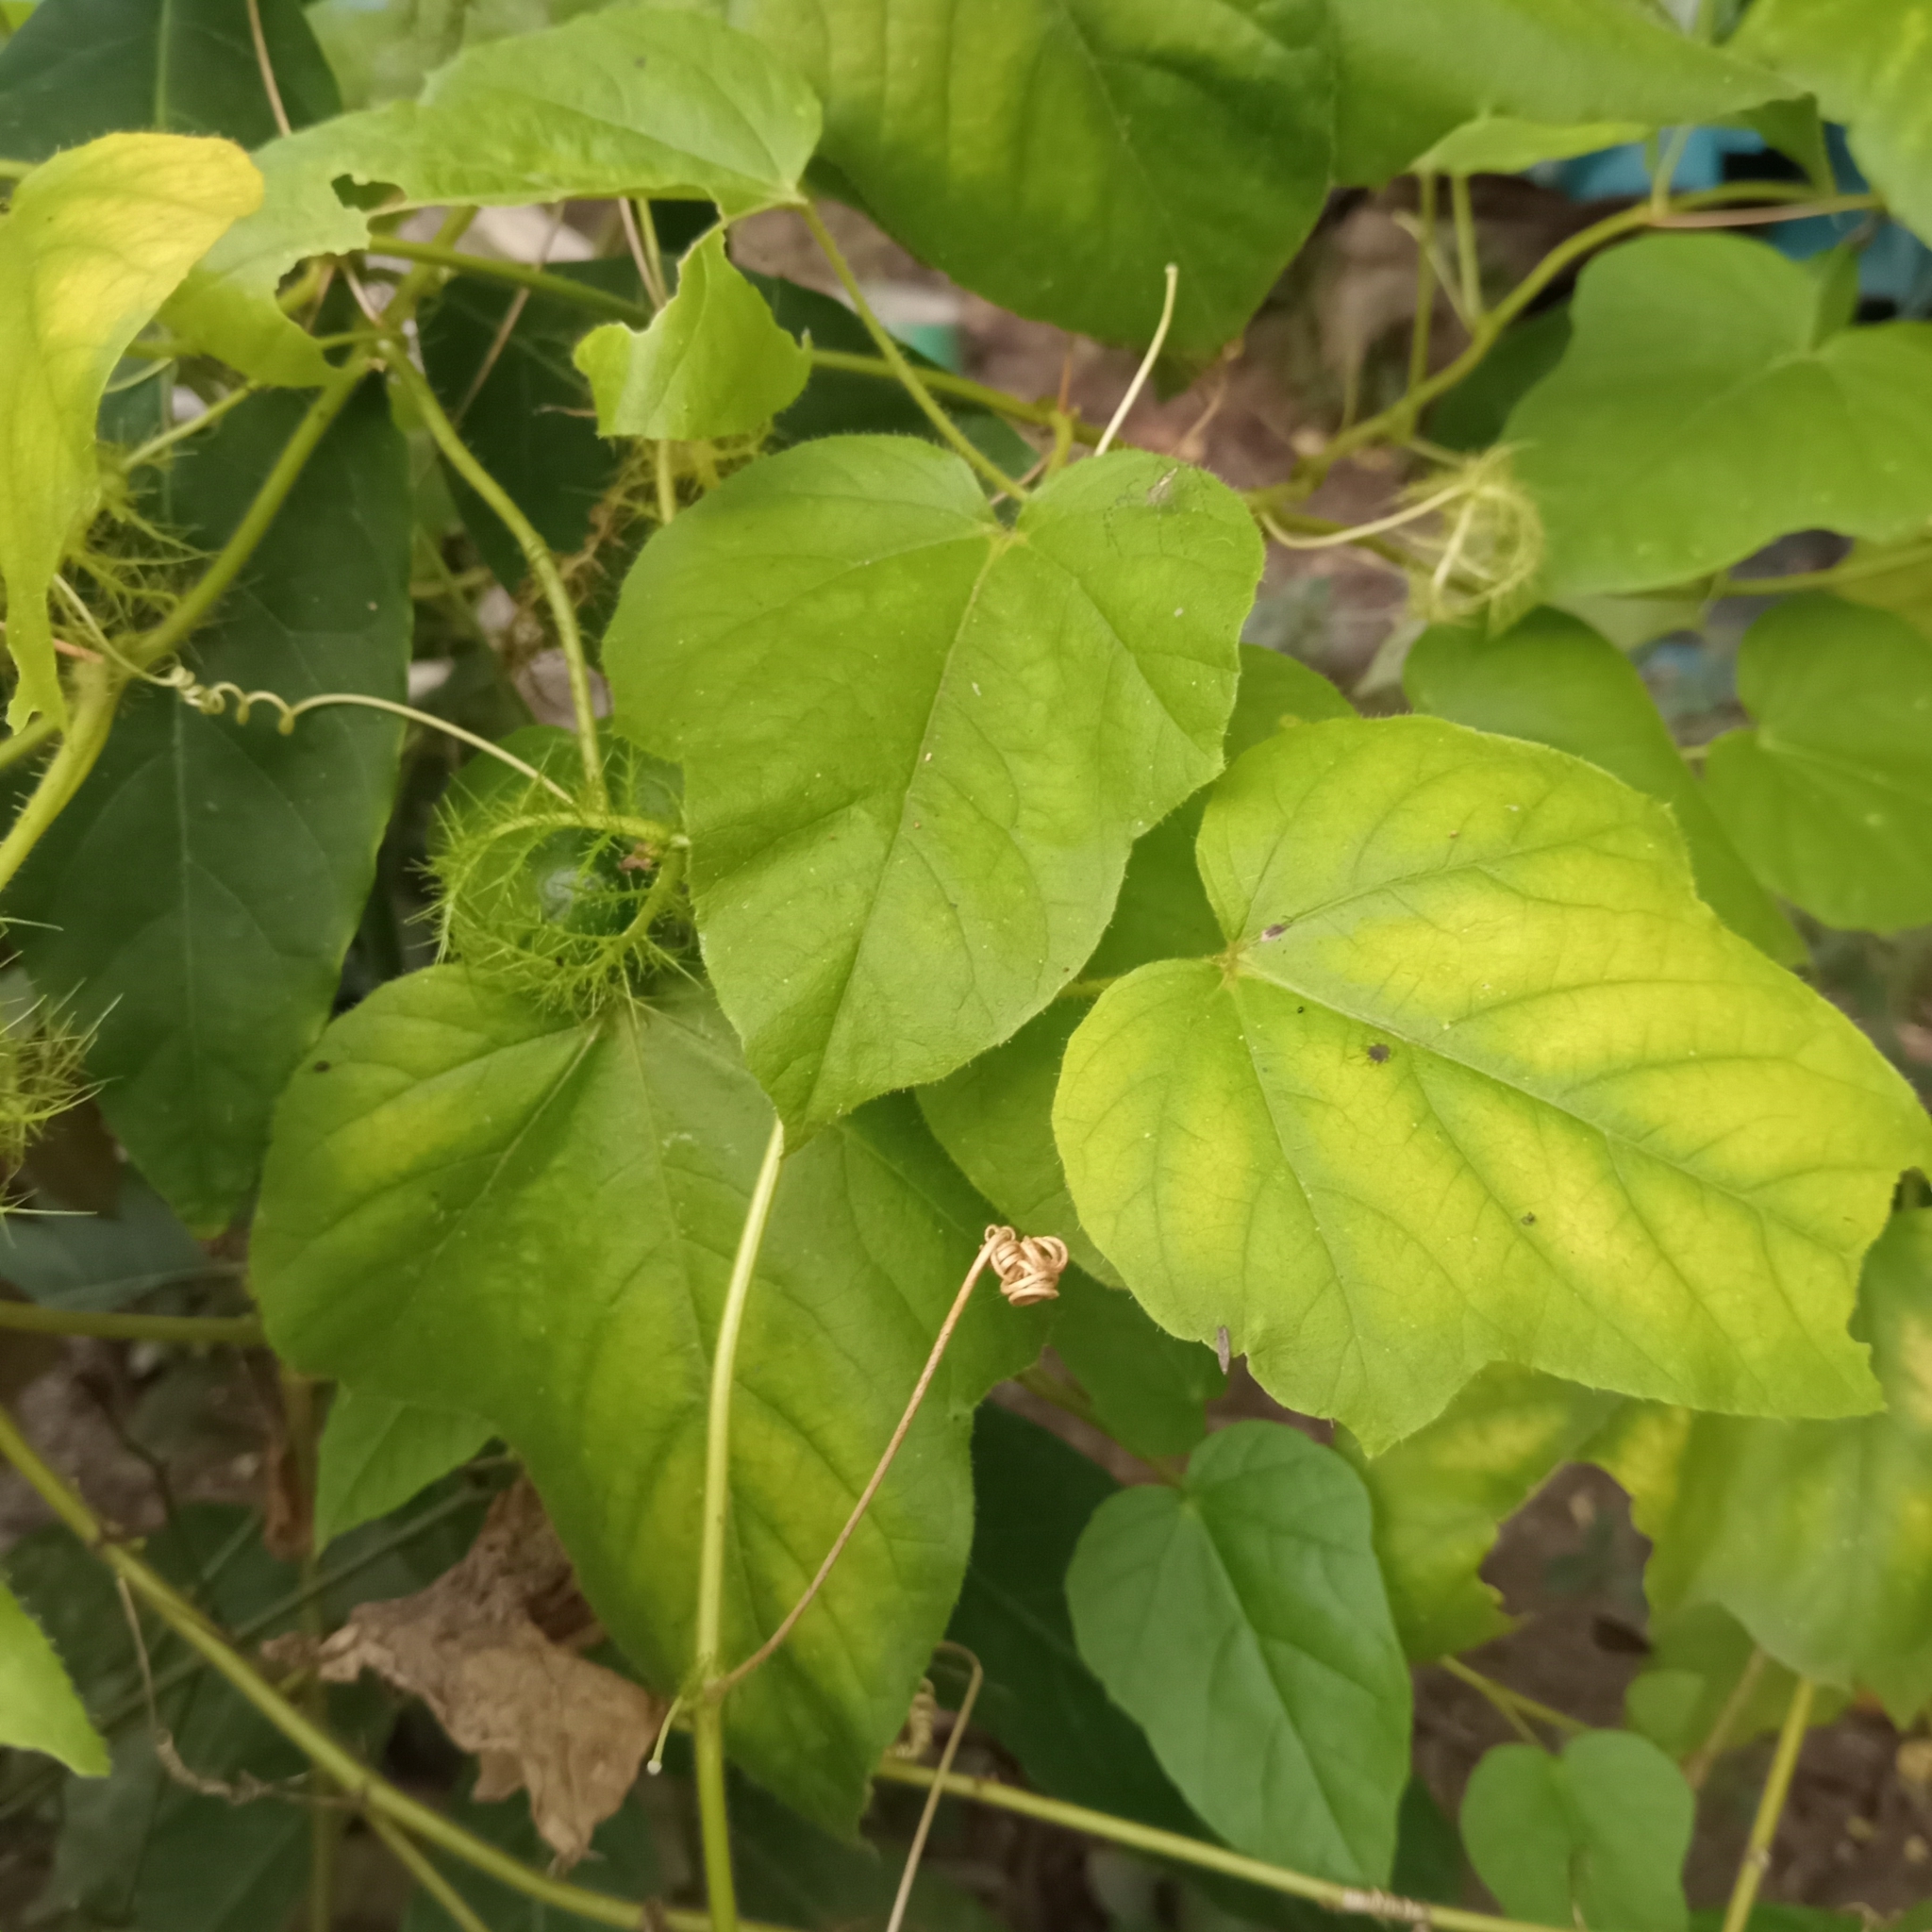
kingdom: Plantae
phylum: Tracheophyta
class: Magnoliopsida
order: Malpighiales
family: Passifloraceae
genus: Passiflora
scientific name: Passiflora vesicaria
